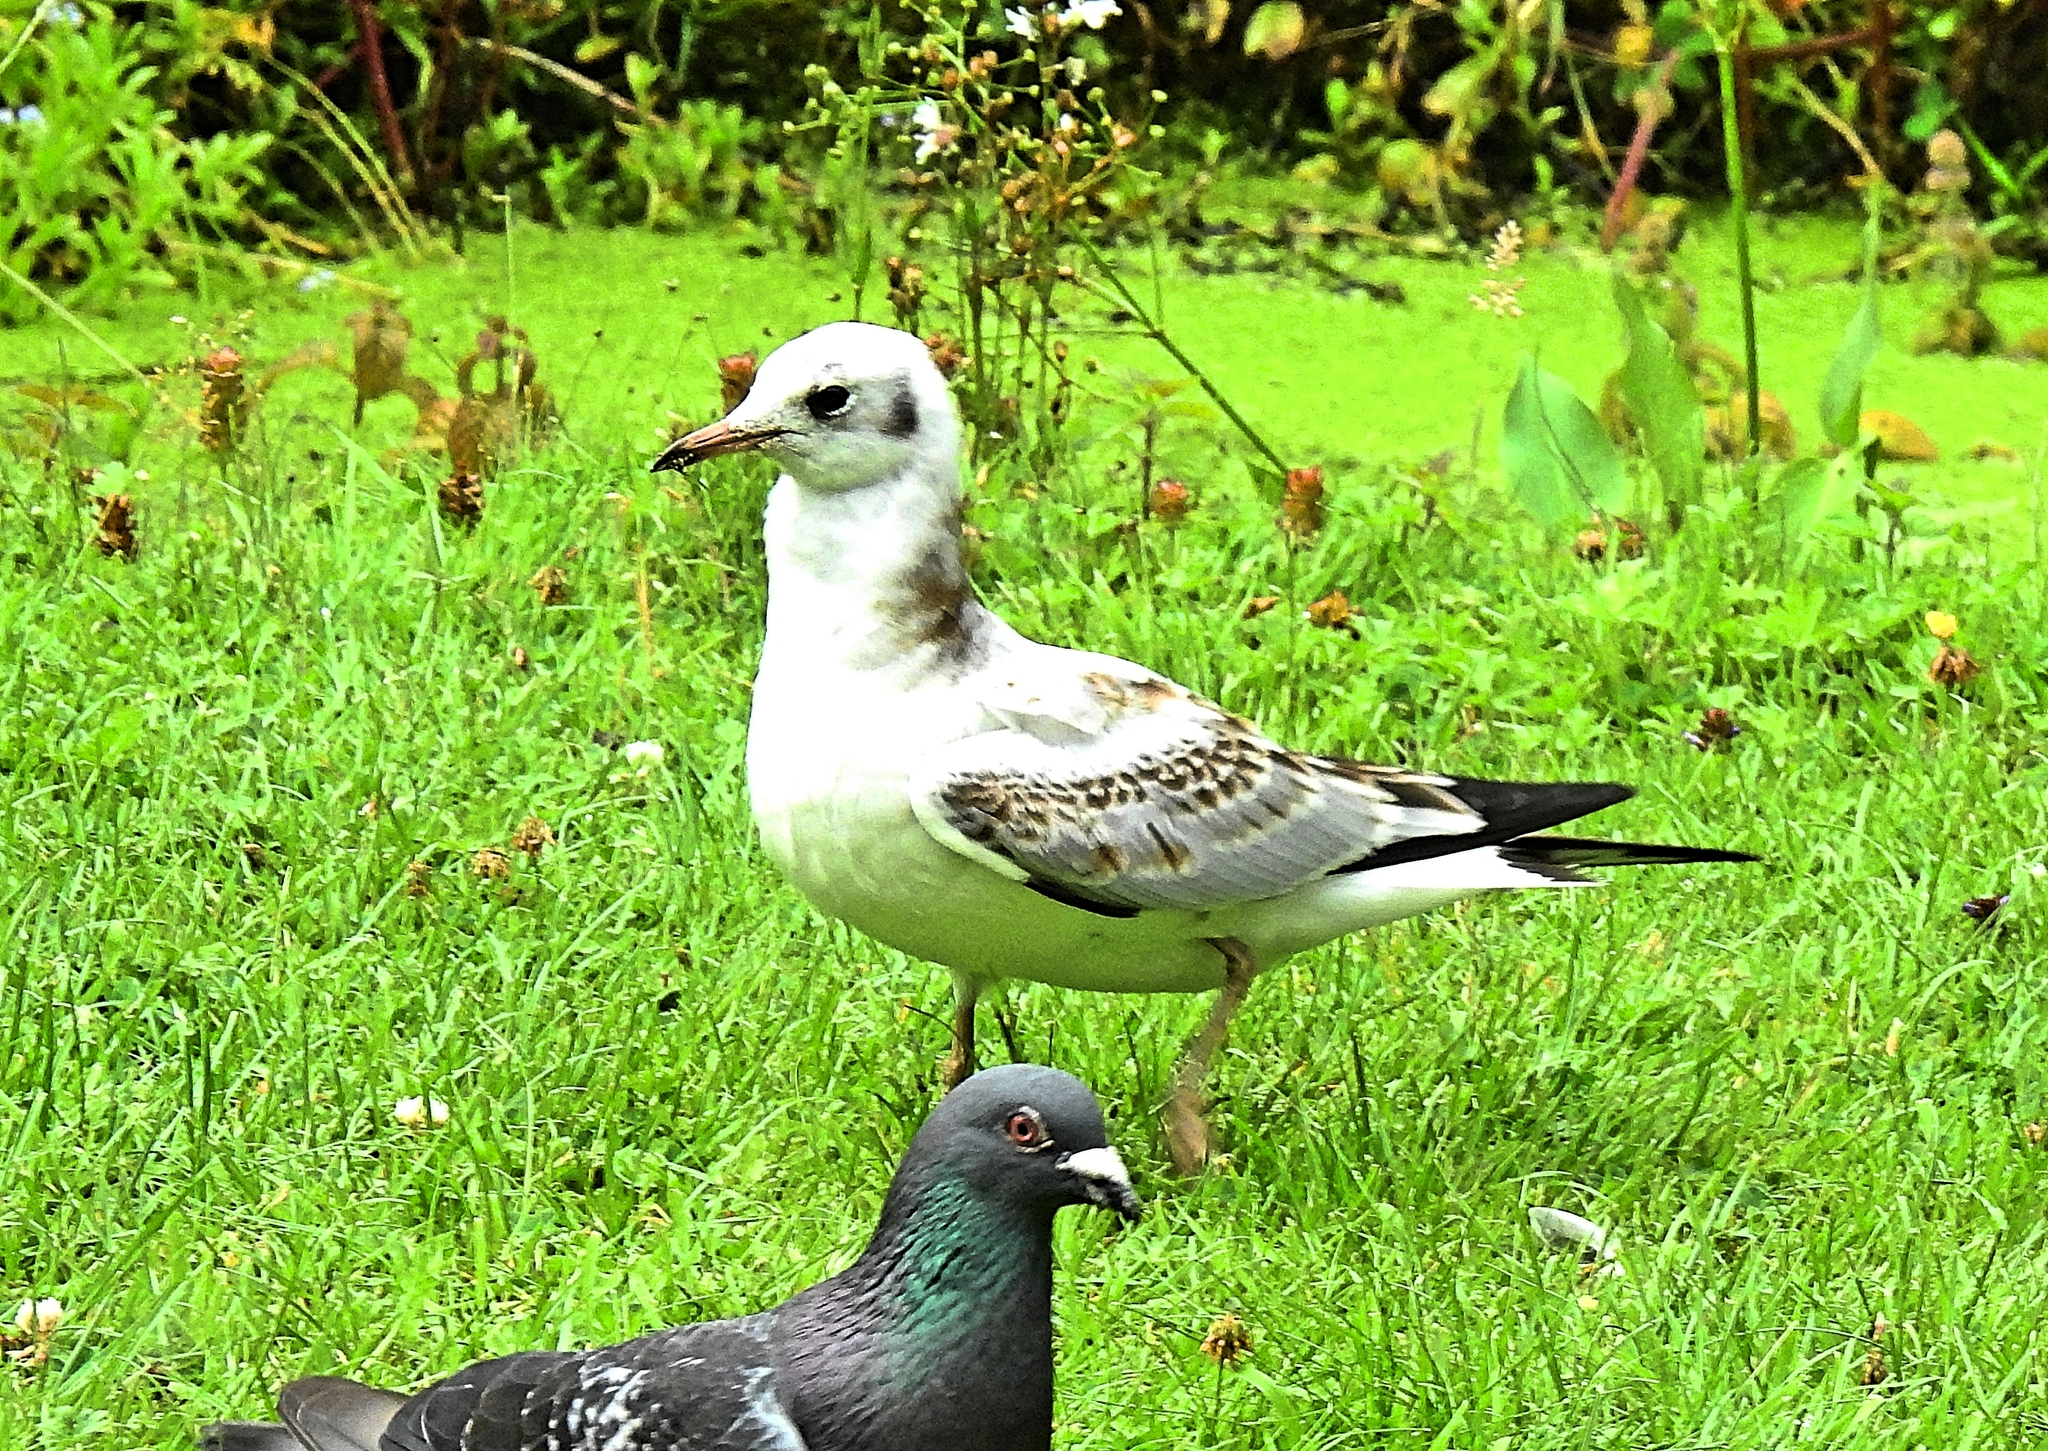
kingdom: Animalia
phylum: Chordata
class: Aves
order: Charadriiformes
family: Laridae
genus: Chroicocephalus
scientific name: Chroicocephalus ridibundus
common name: Black-headed gull
